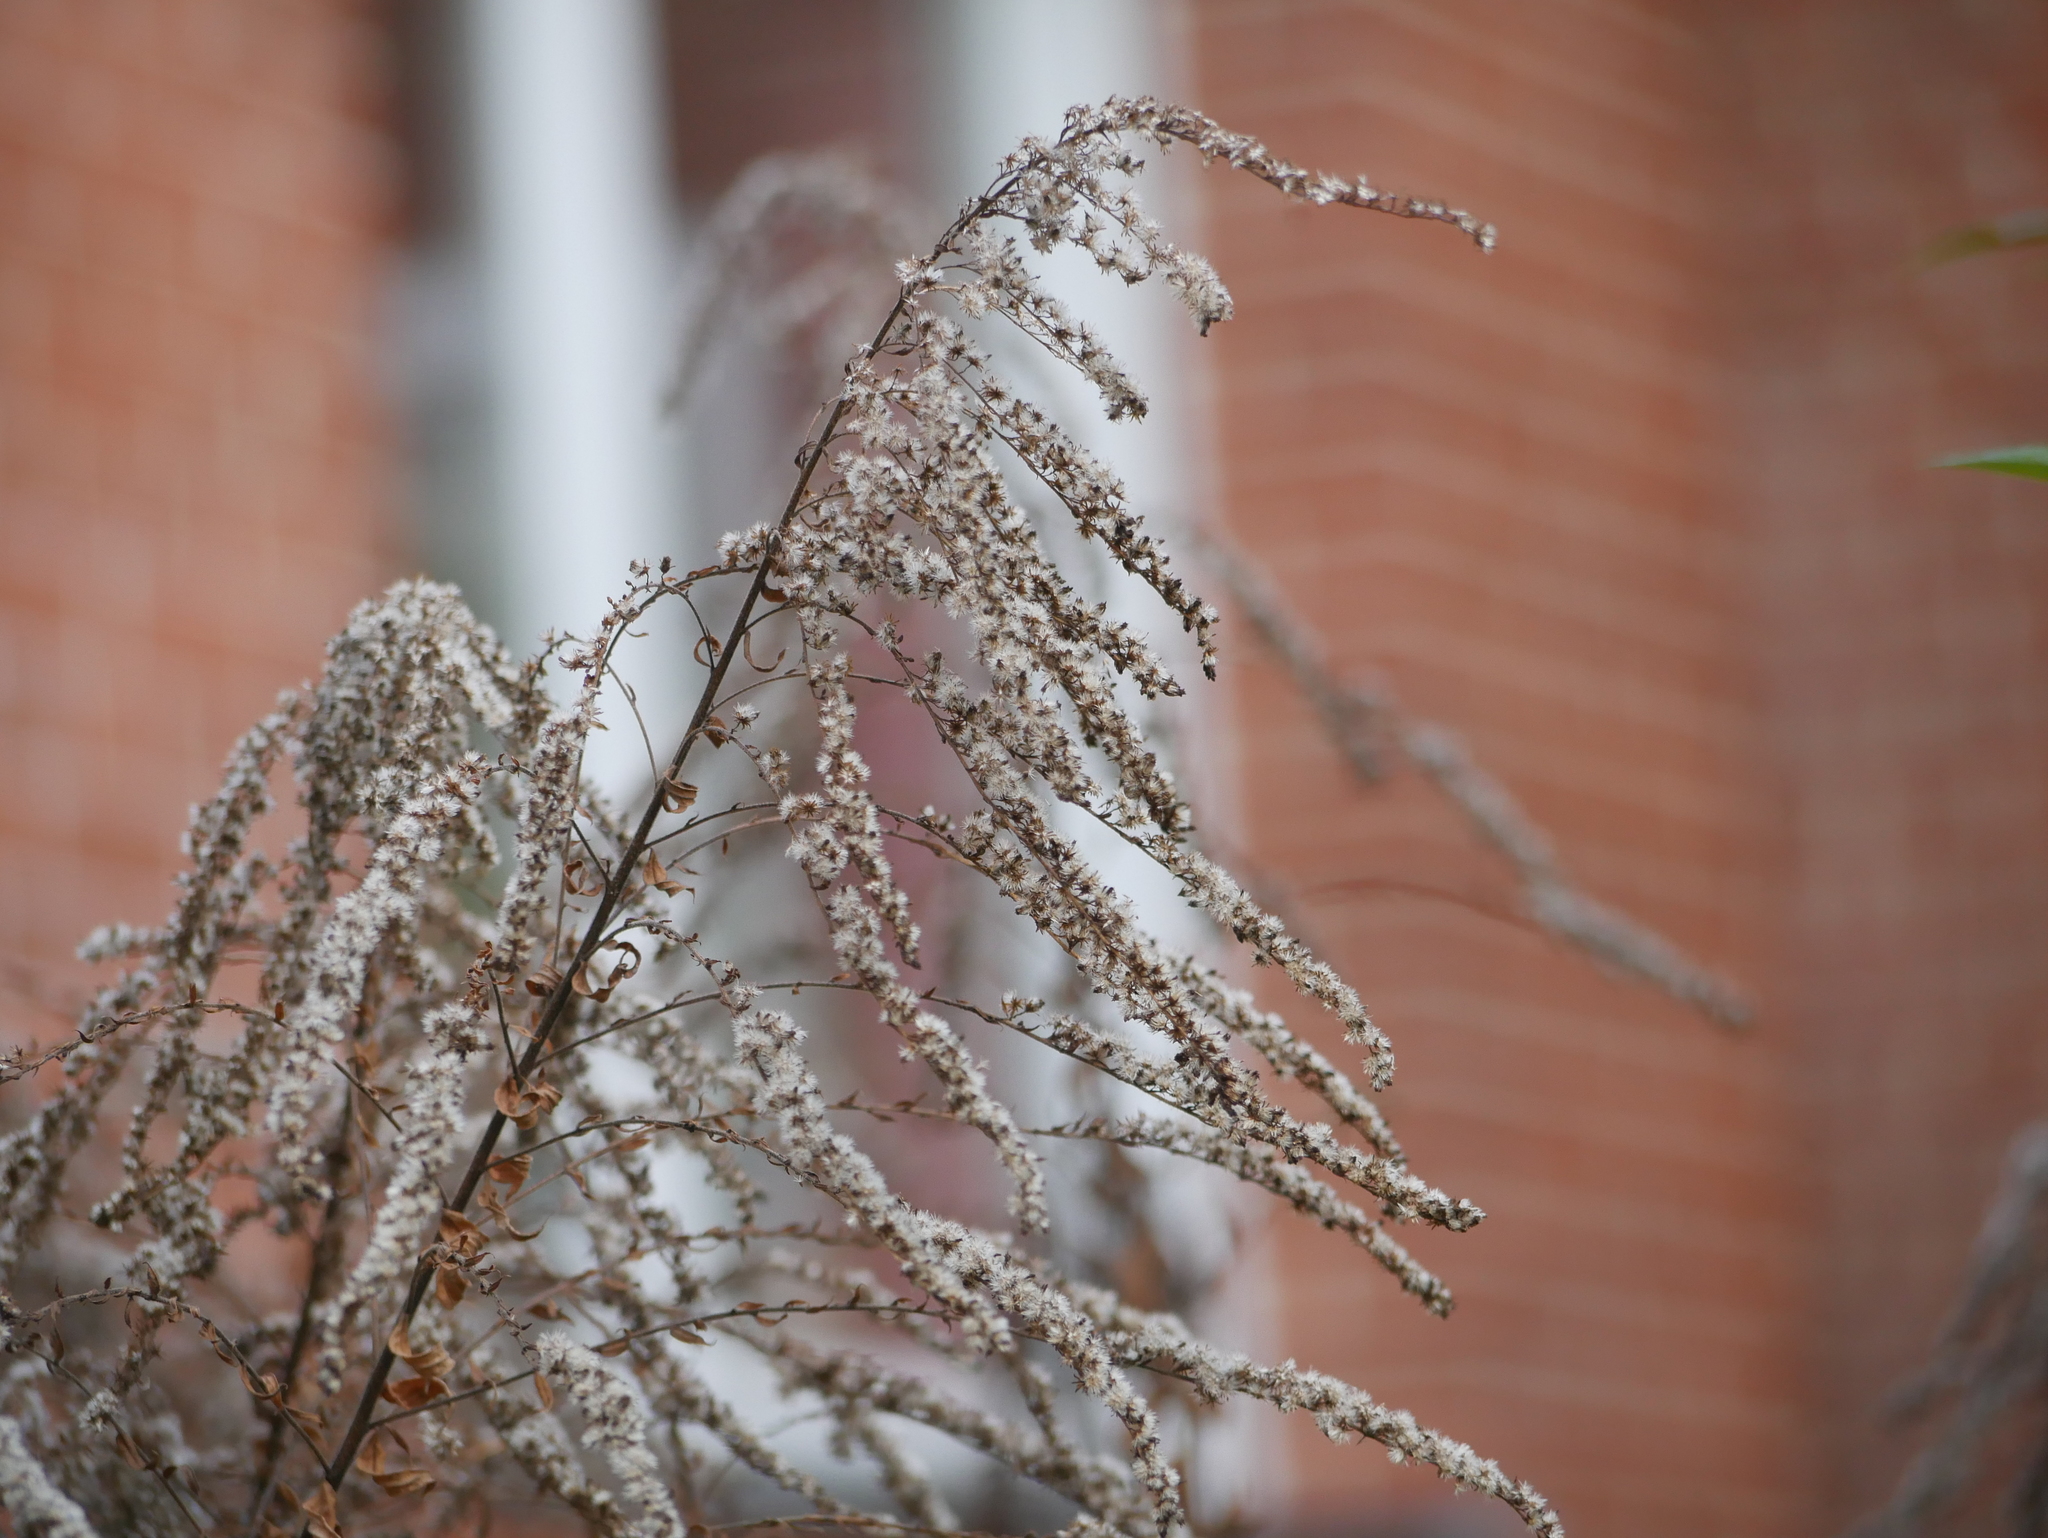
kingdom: Plantae
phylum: Tracheophyta
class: Magnoliopsida
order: Asterales
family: Asteraceae
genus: Solidago
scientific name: Solidago canadensis
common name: Canada goldenrod
